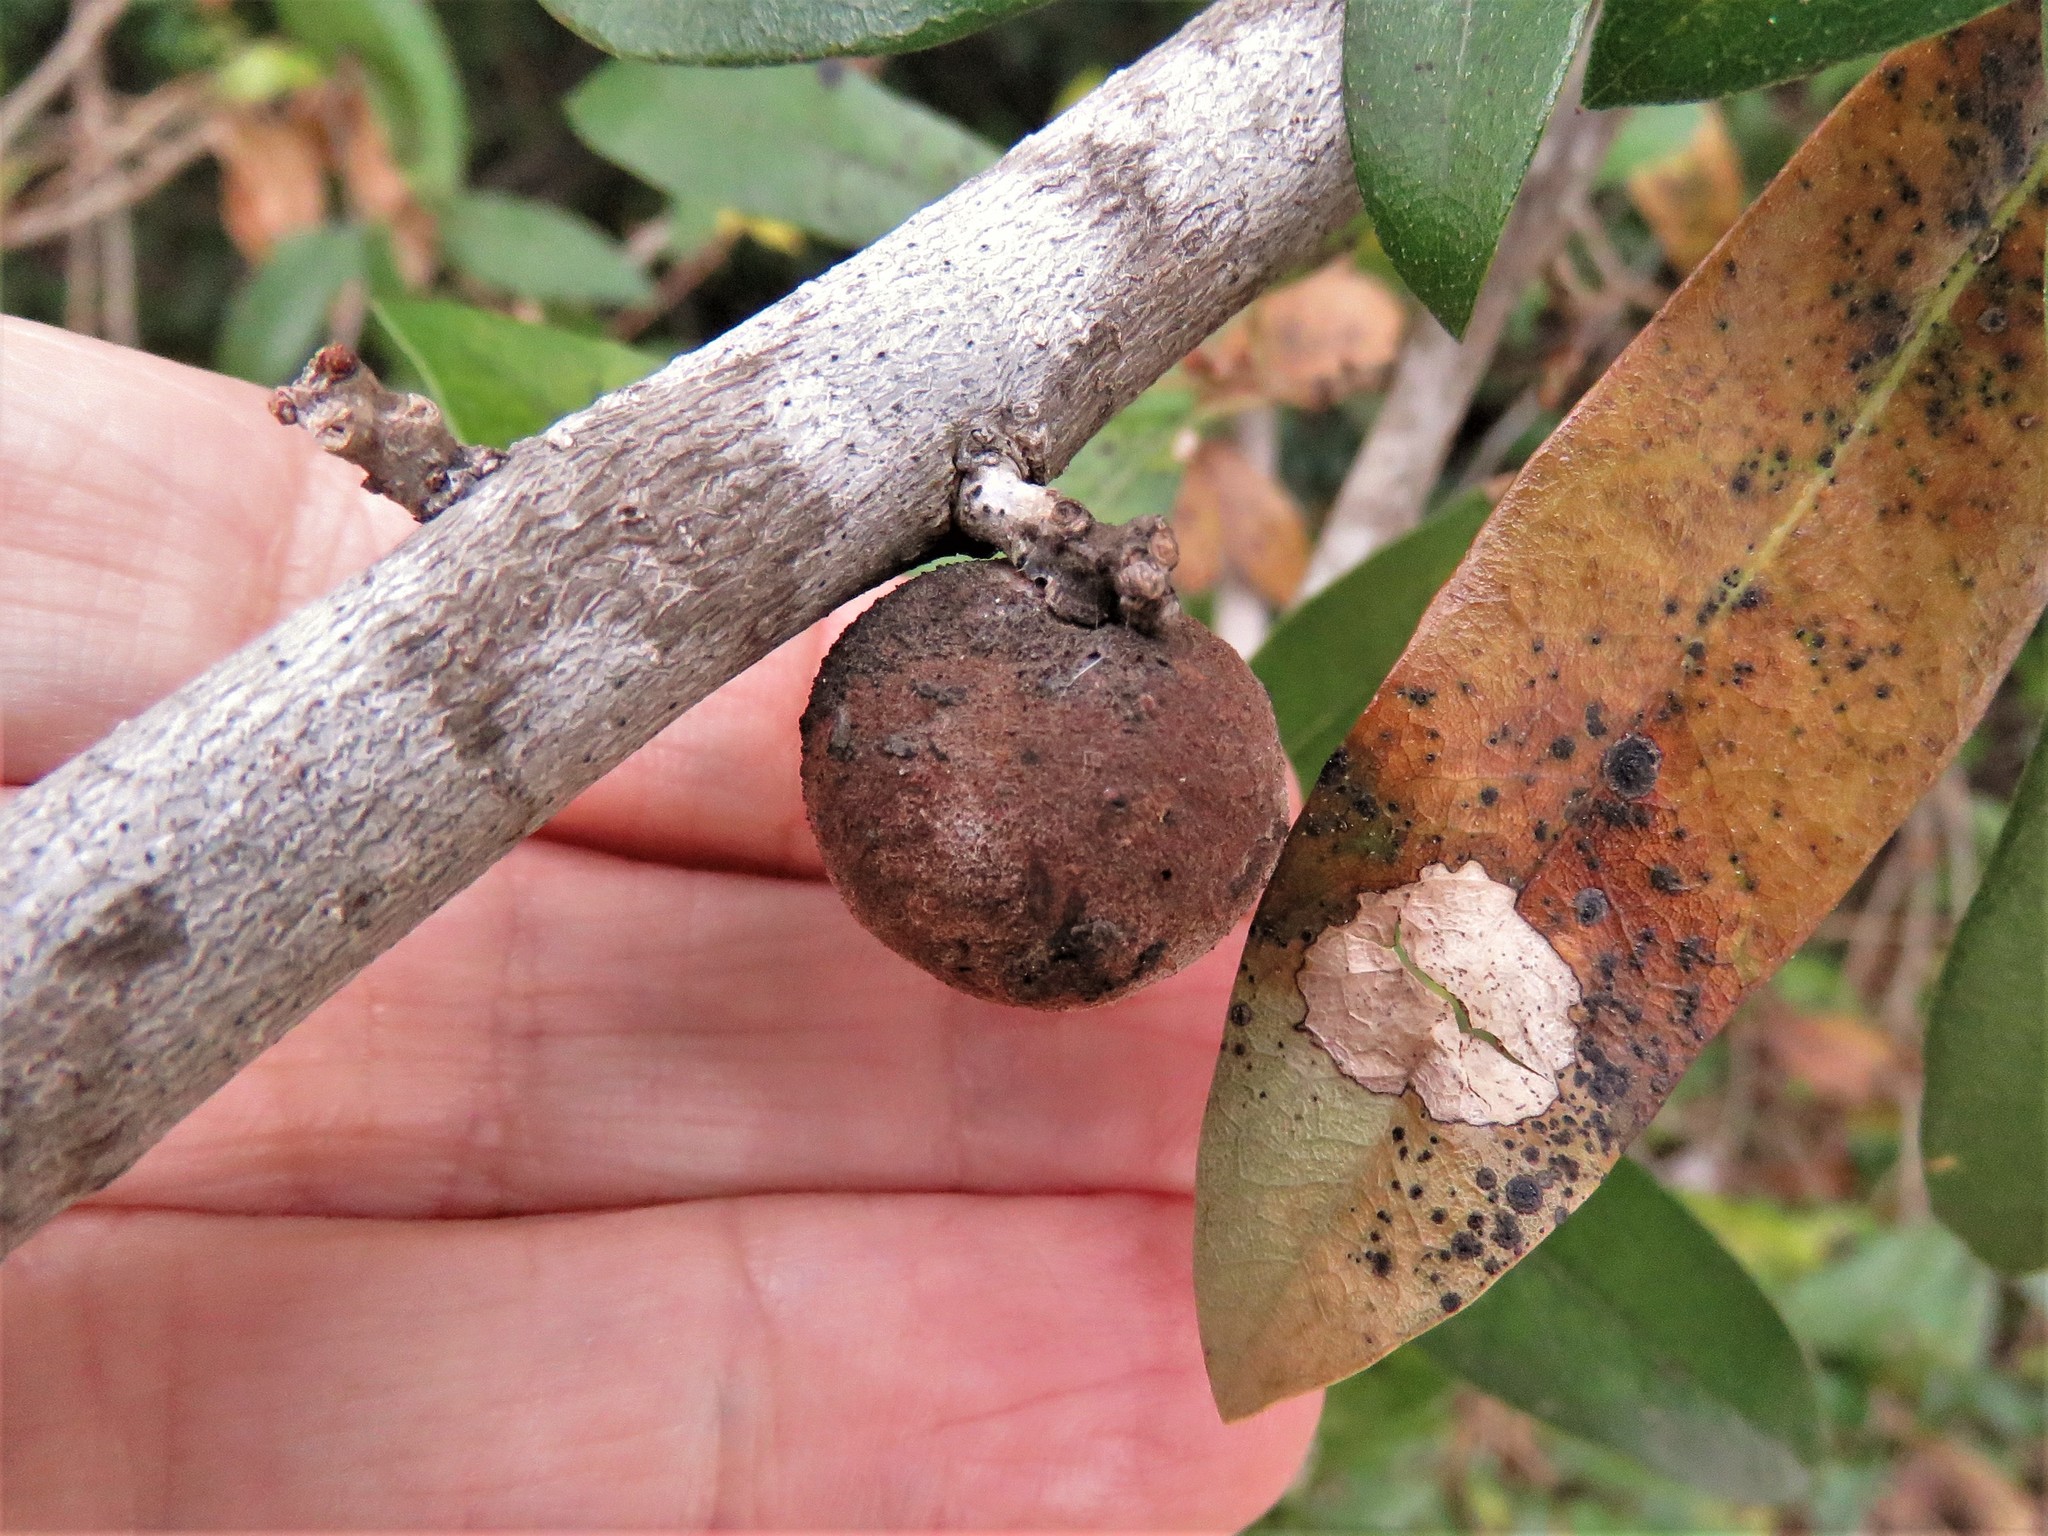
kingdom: Animalia
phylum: Arthropoda
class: Insecta
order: Hymenoptera
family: Cynipidae
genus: Disholcaspis
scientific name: Disholcaspis
